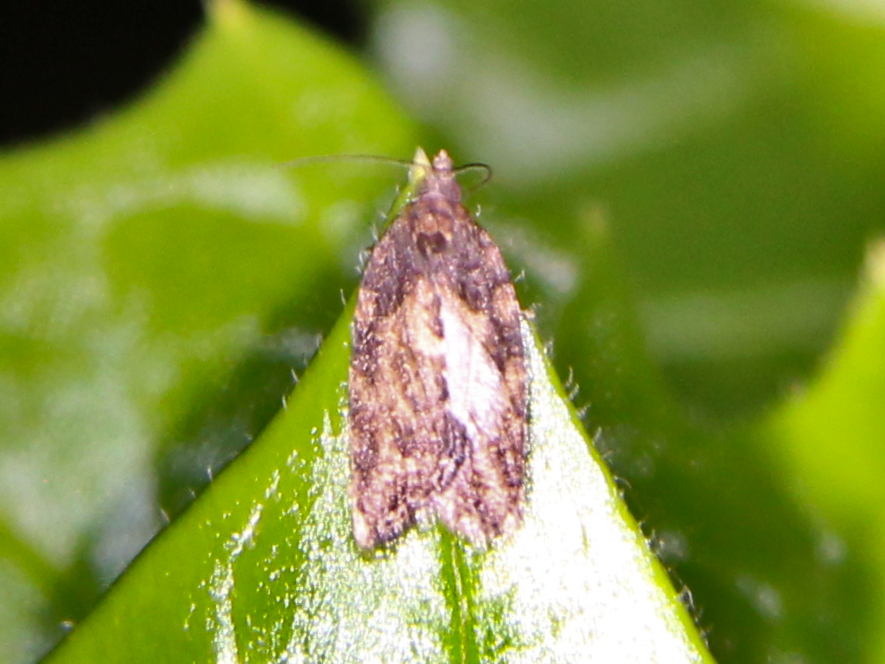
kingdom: Animalia
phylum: Arthropoda
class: Insecta
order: Lepidoptera
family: Tortricidae
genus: Capua
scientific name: Capua intractana
